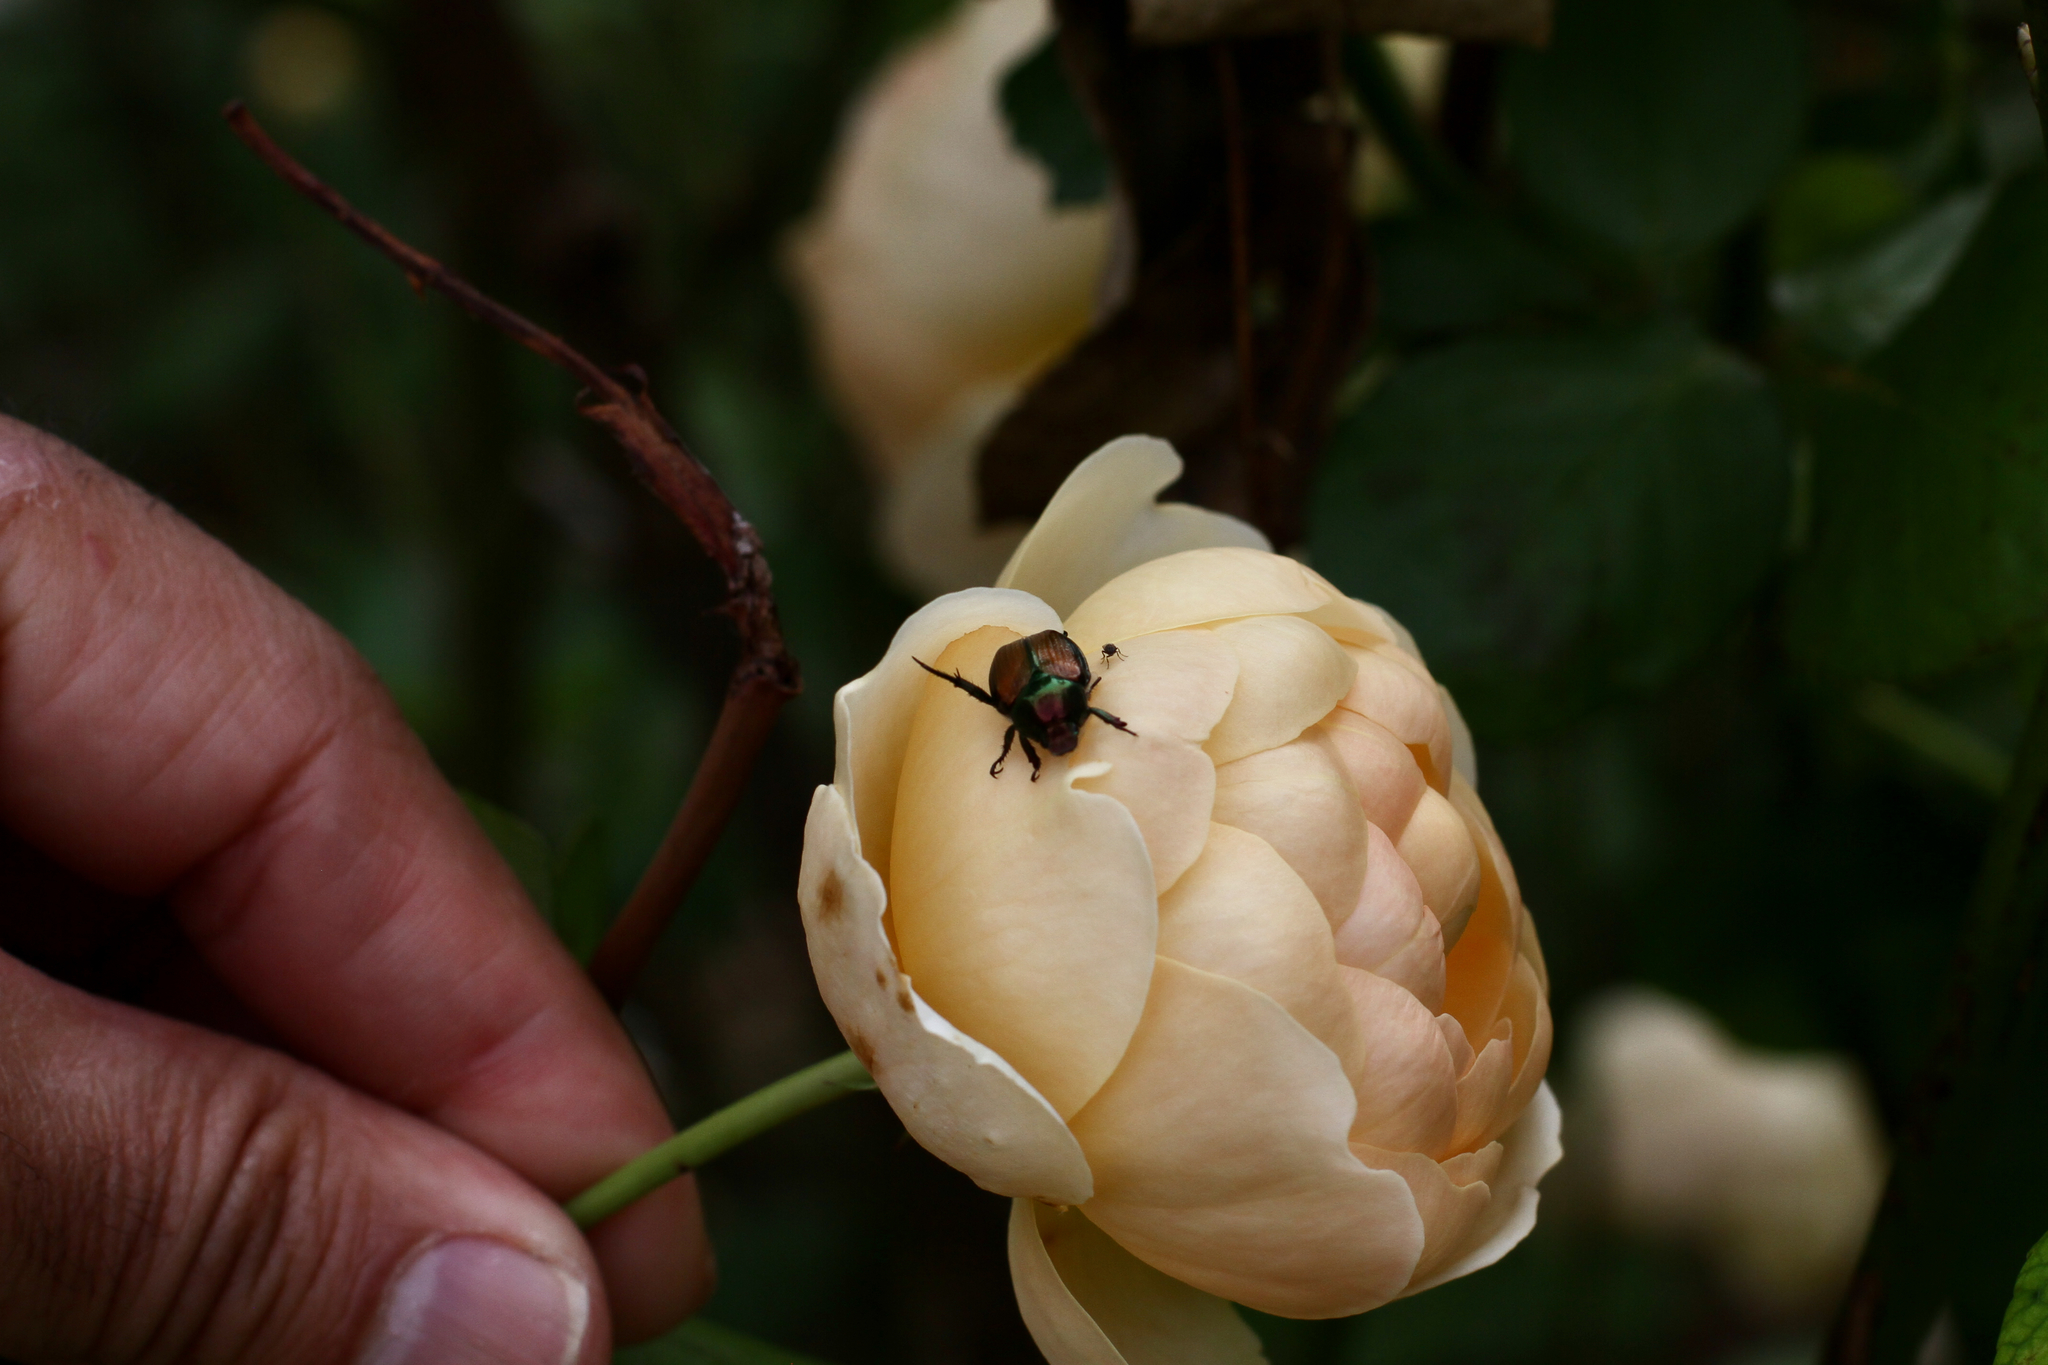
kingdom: Animalia
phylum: Arthropoda
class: Insecta
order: Coleoptera
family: Scarabaeidae
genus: Popillia
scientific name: Popillia japonica
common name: Japanese beetle
